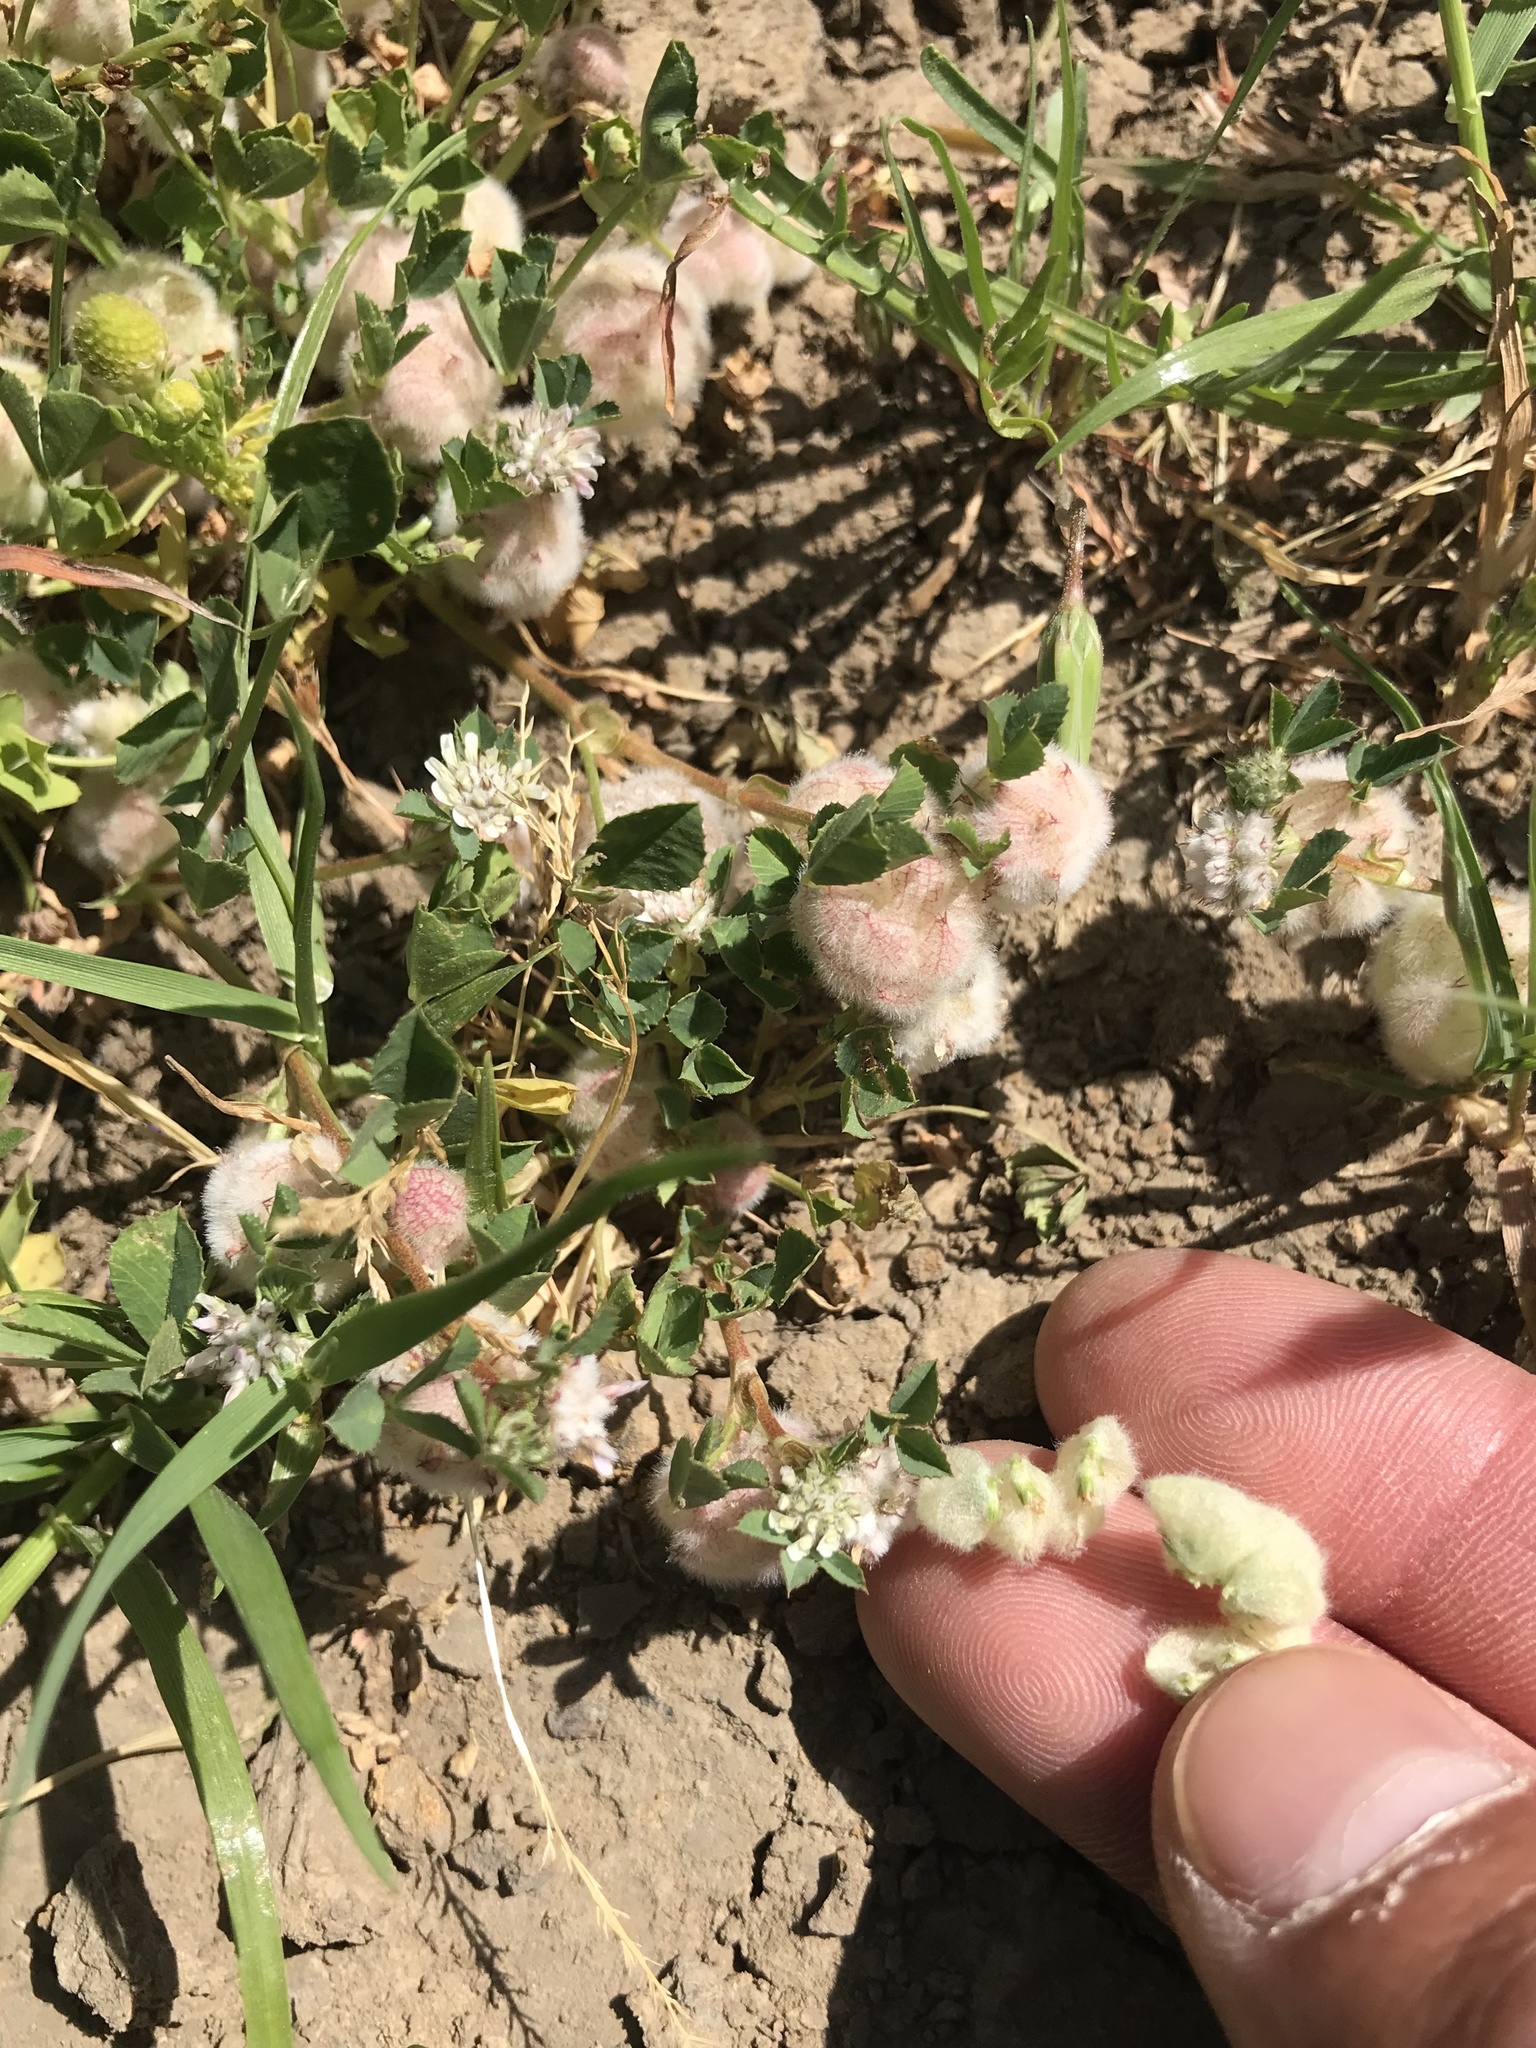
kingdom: Plantae
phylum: Tracheophyta
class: Magnoliopsida
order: Fabales
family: Fabaceae
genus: Trifolium
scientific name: Trifolium tomentosum
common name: Woolly clover
